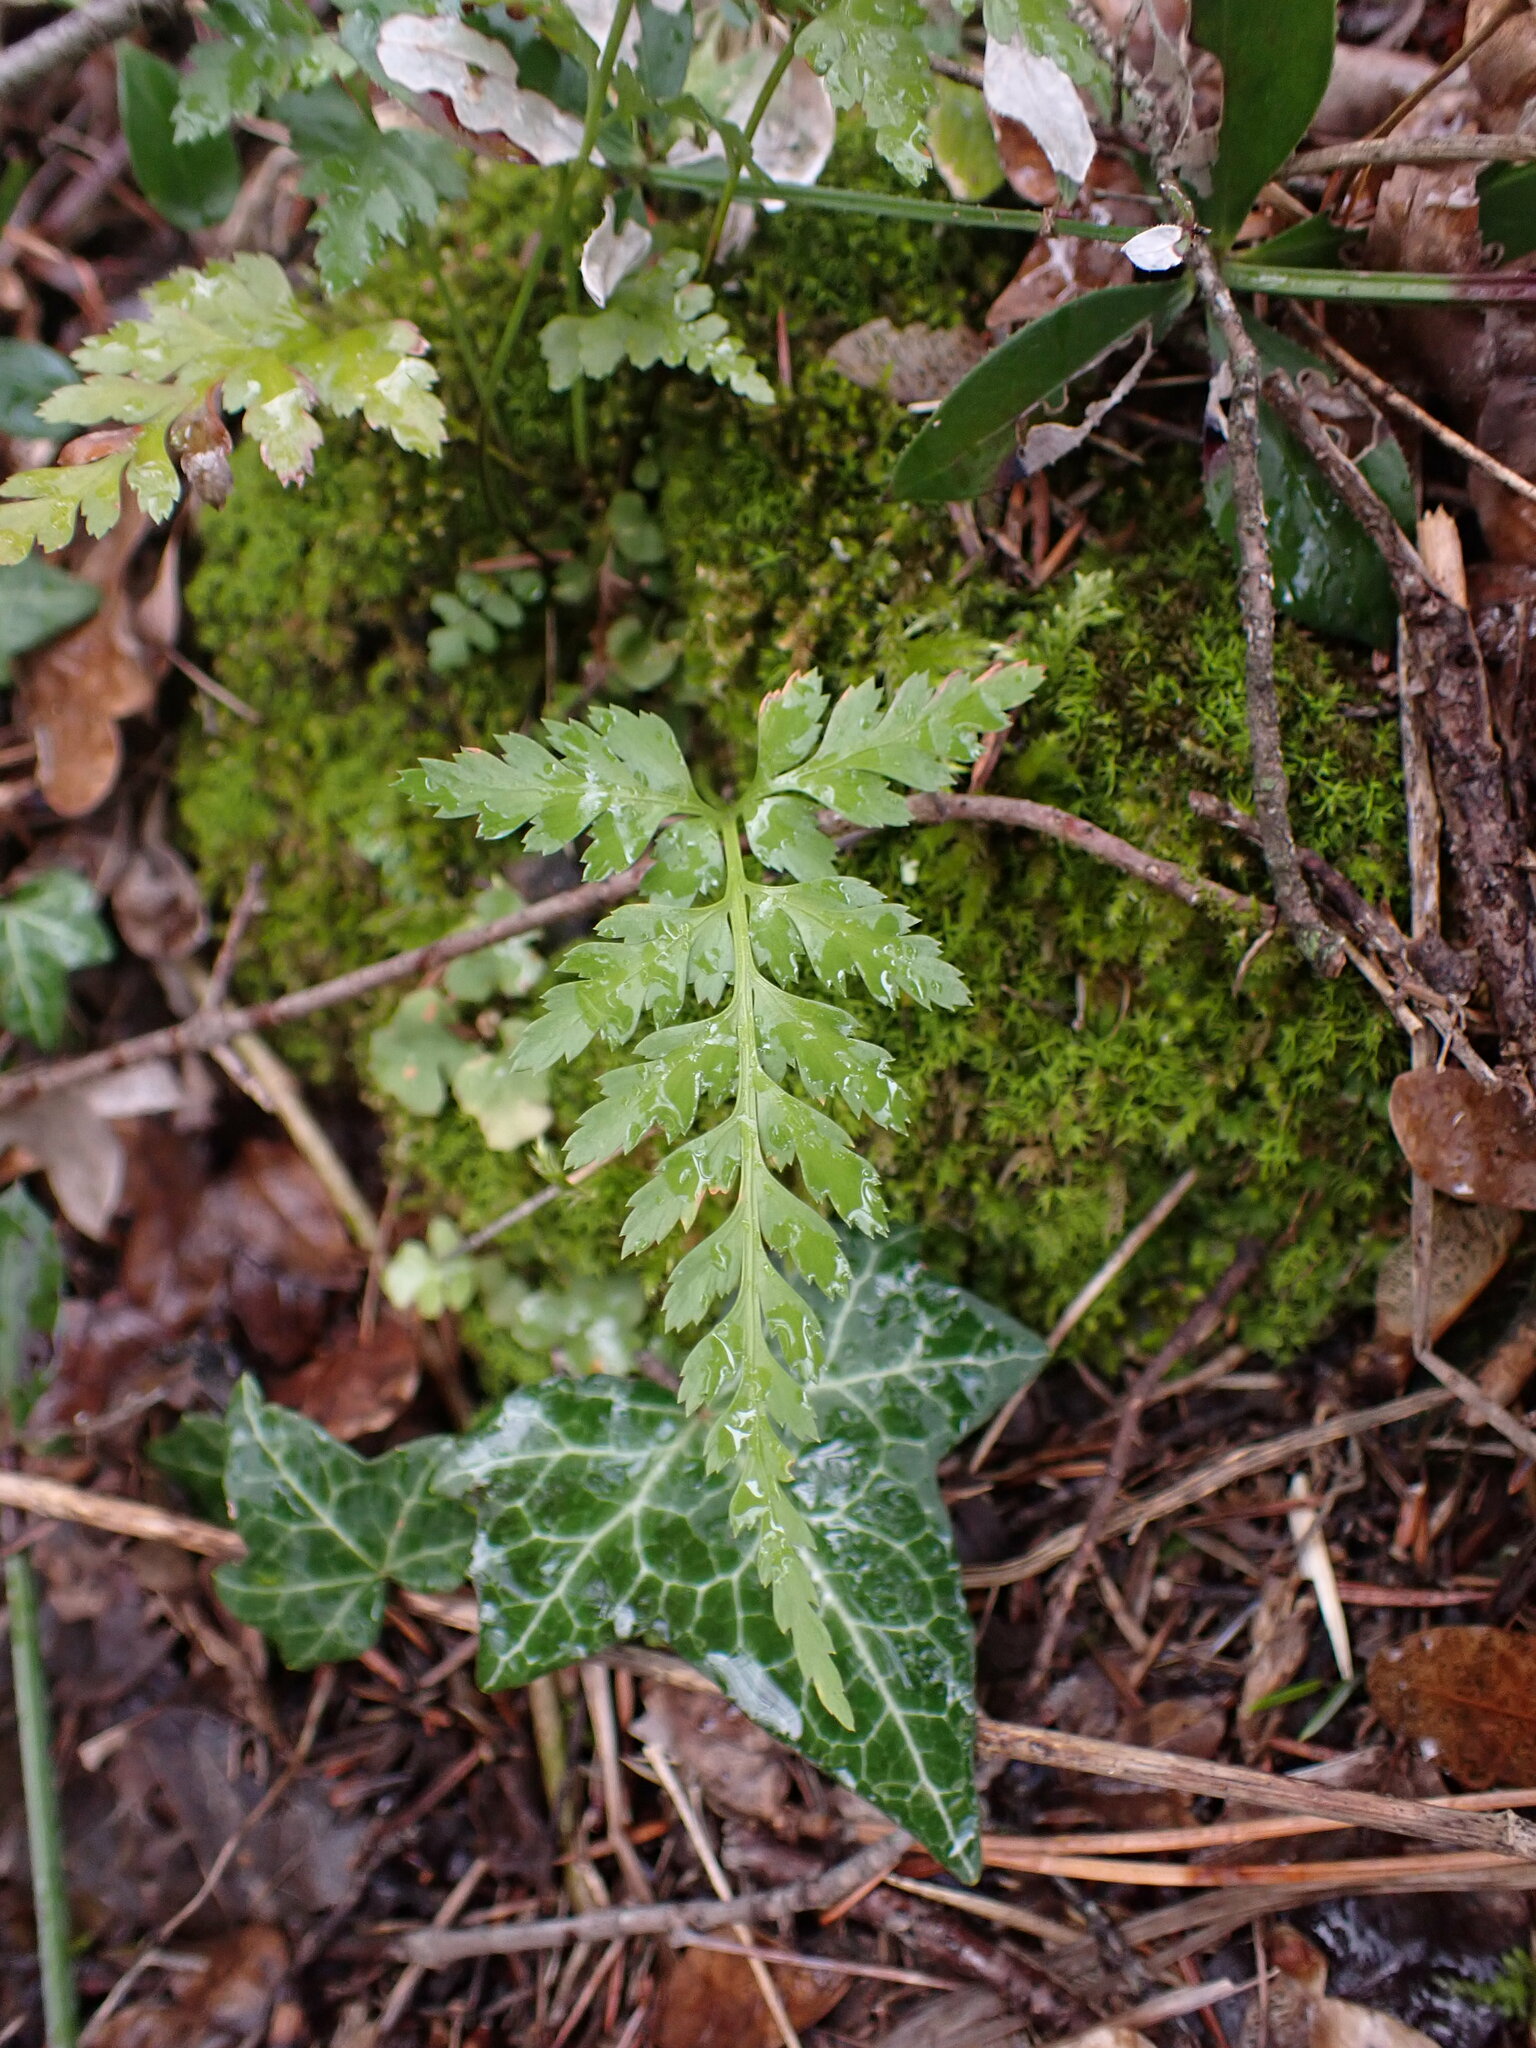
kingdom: Plantae
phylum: Tracheophyta
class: Polypodiopsida
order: Polypodiales
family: Aspleniaceae
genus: Asplenium
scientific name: Asplenium adiantum-nigrum
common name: Black spleenwort
